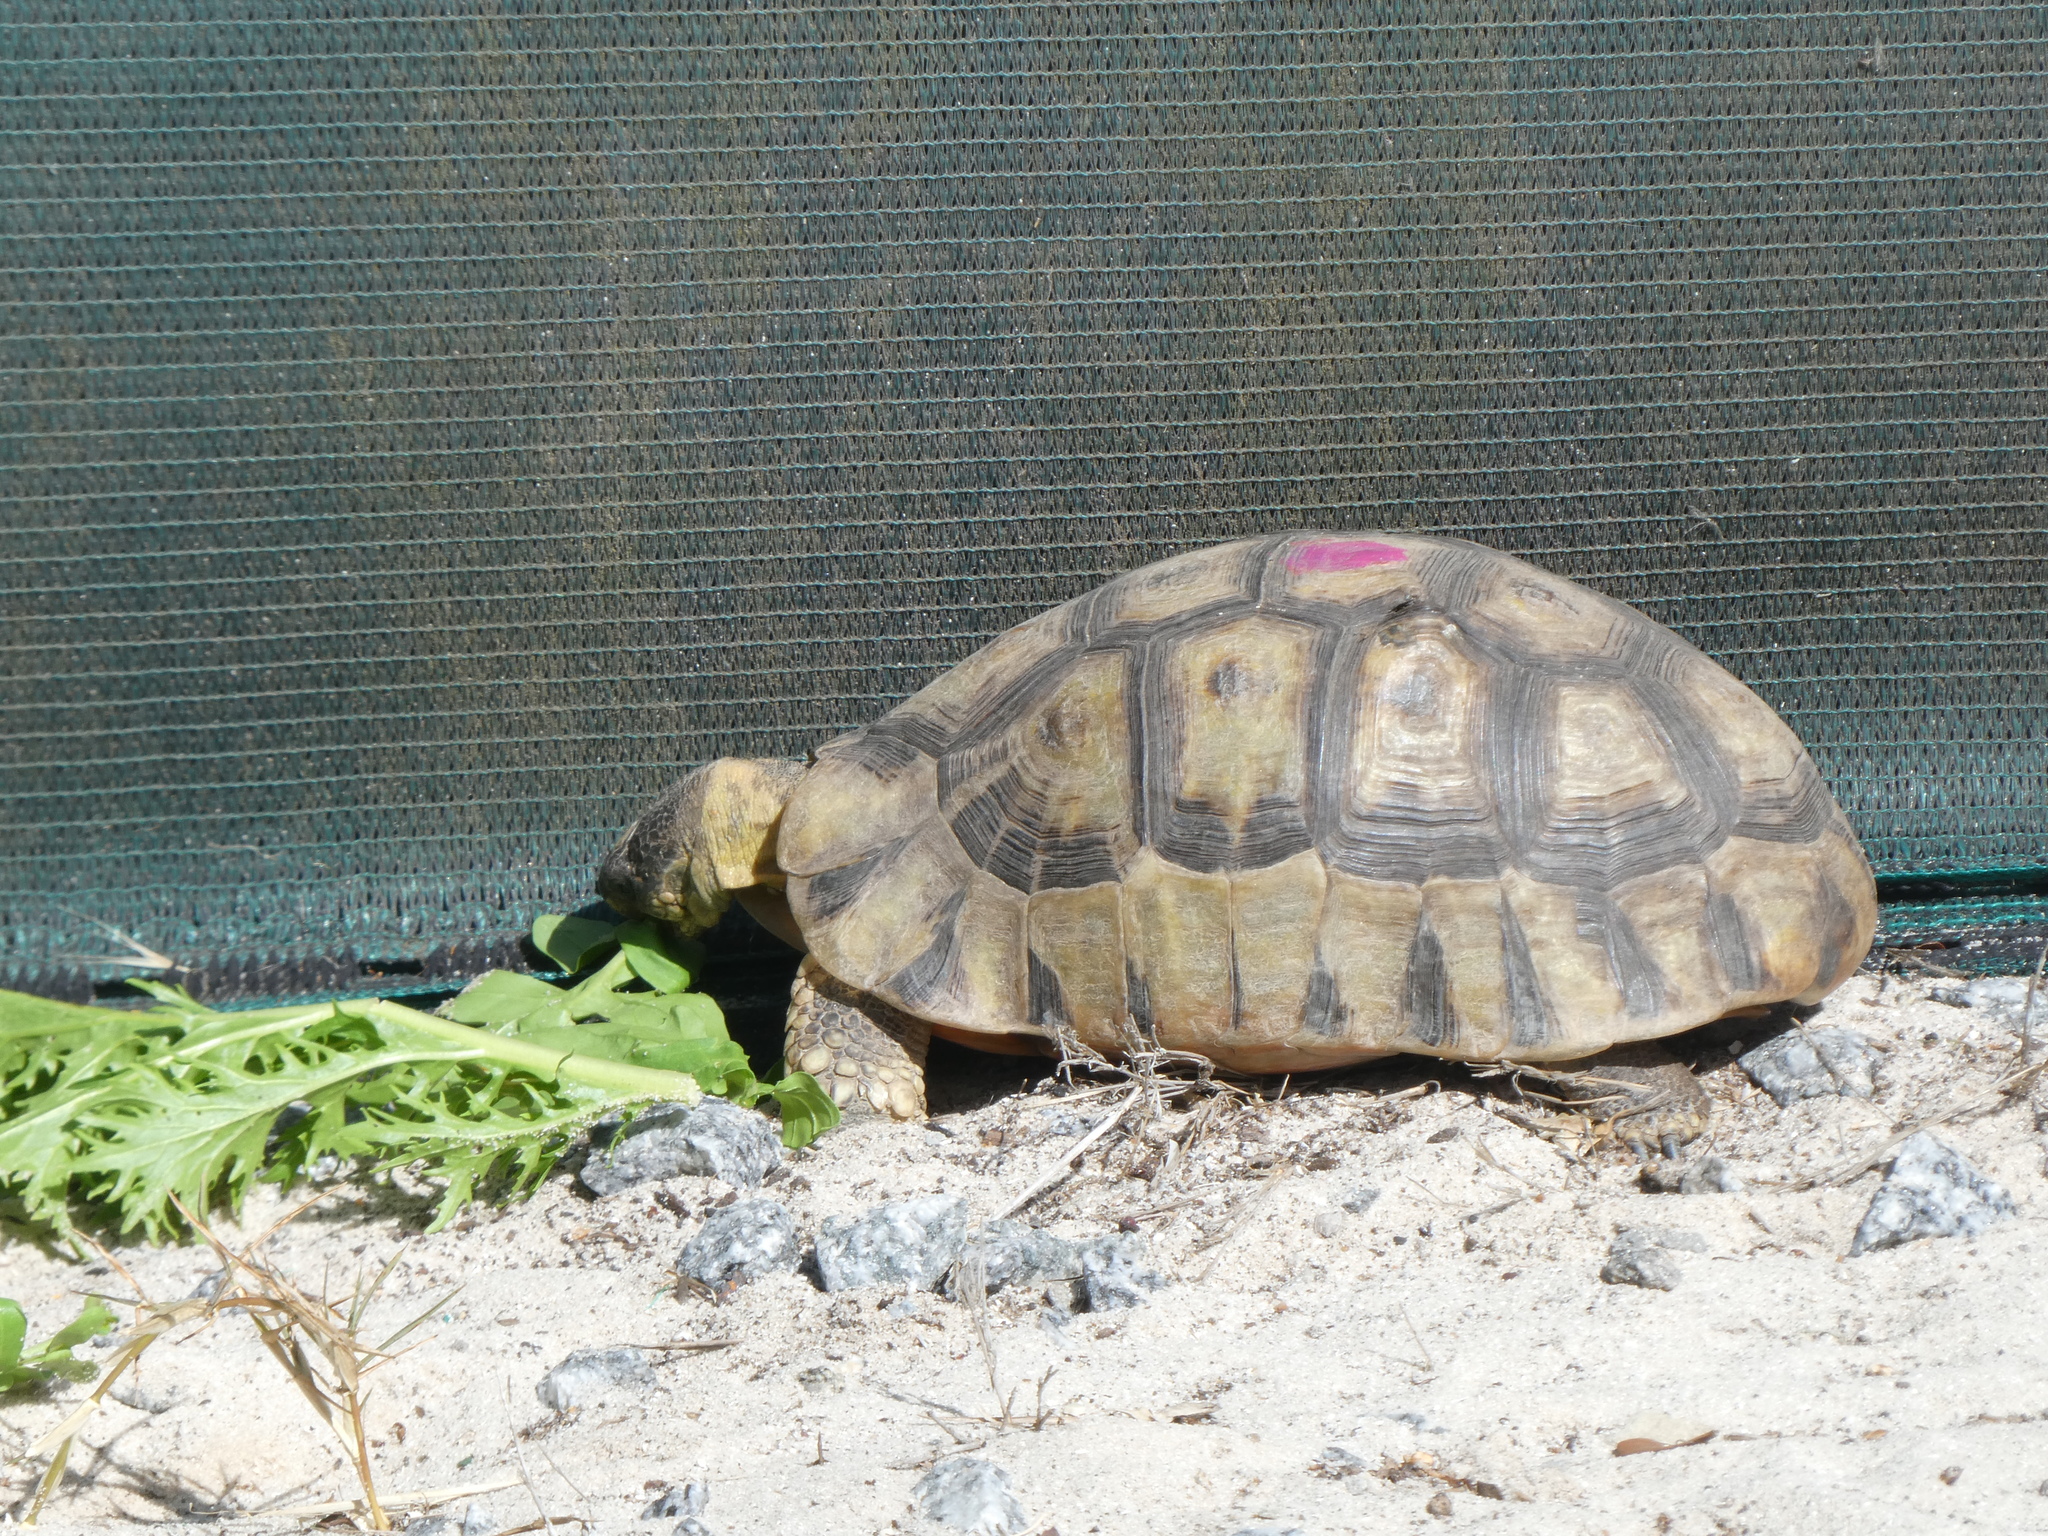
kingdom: Animalia
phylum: Chordata
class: Testudines
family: Testudinidae
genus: Chersina
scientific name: Chersina angulata
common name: South african bowsprit tortoise
